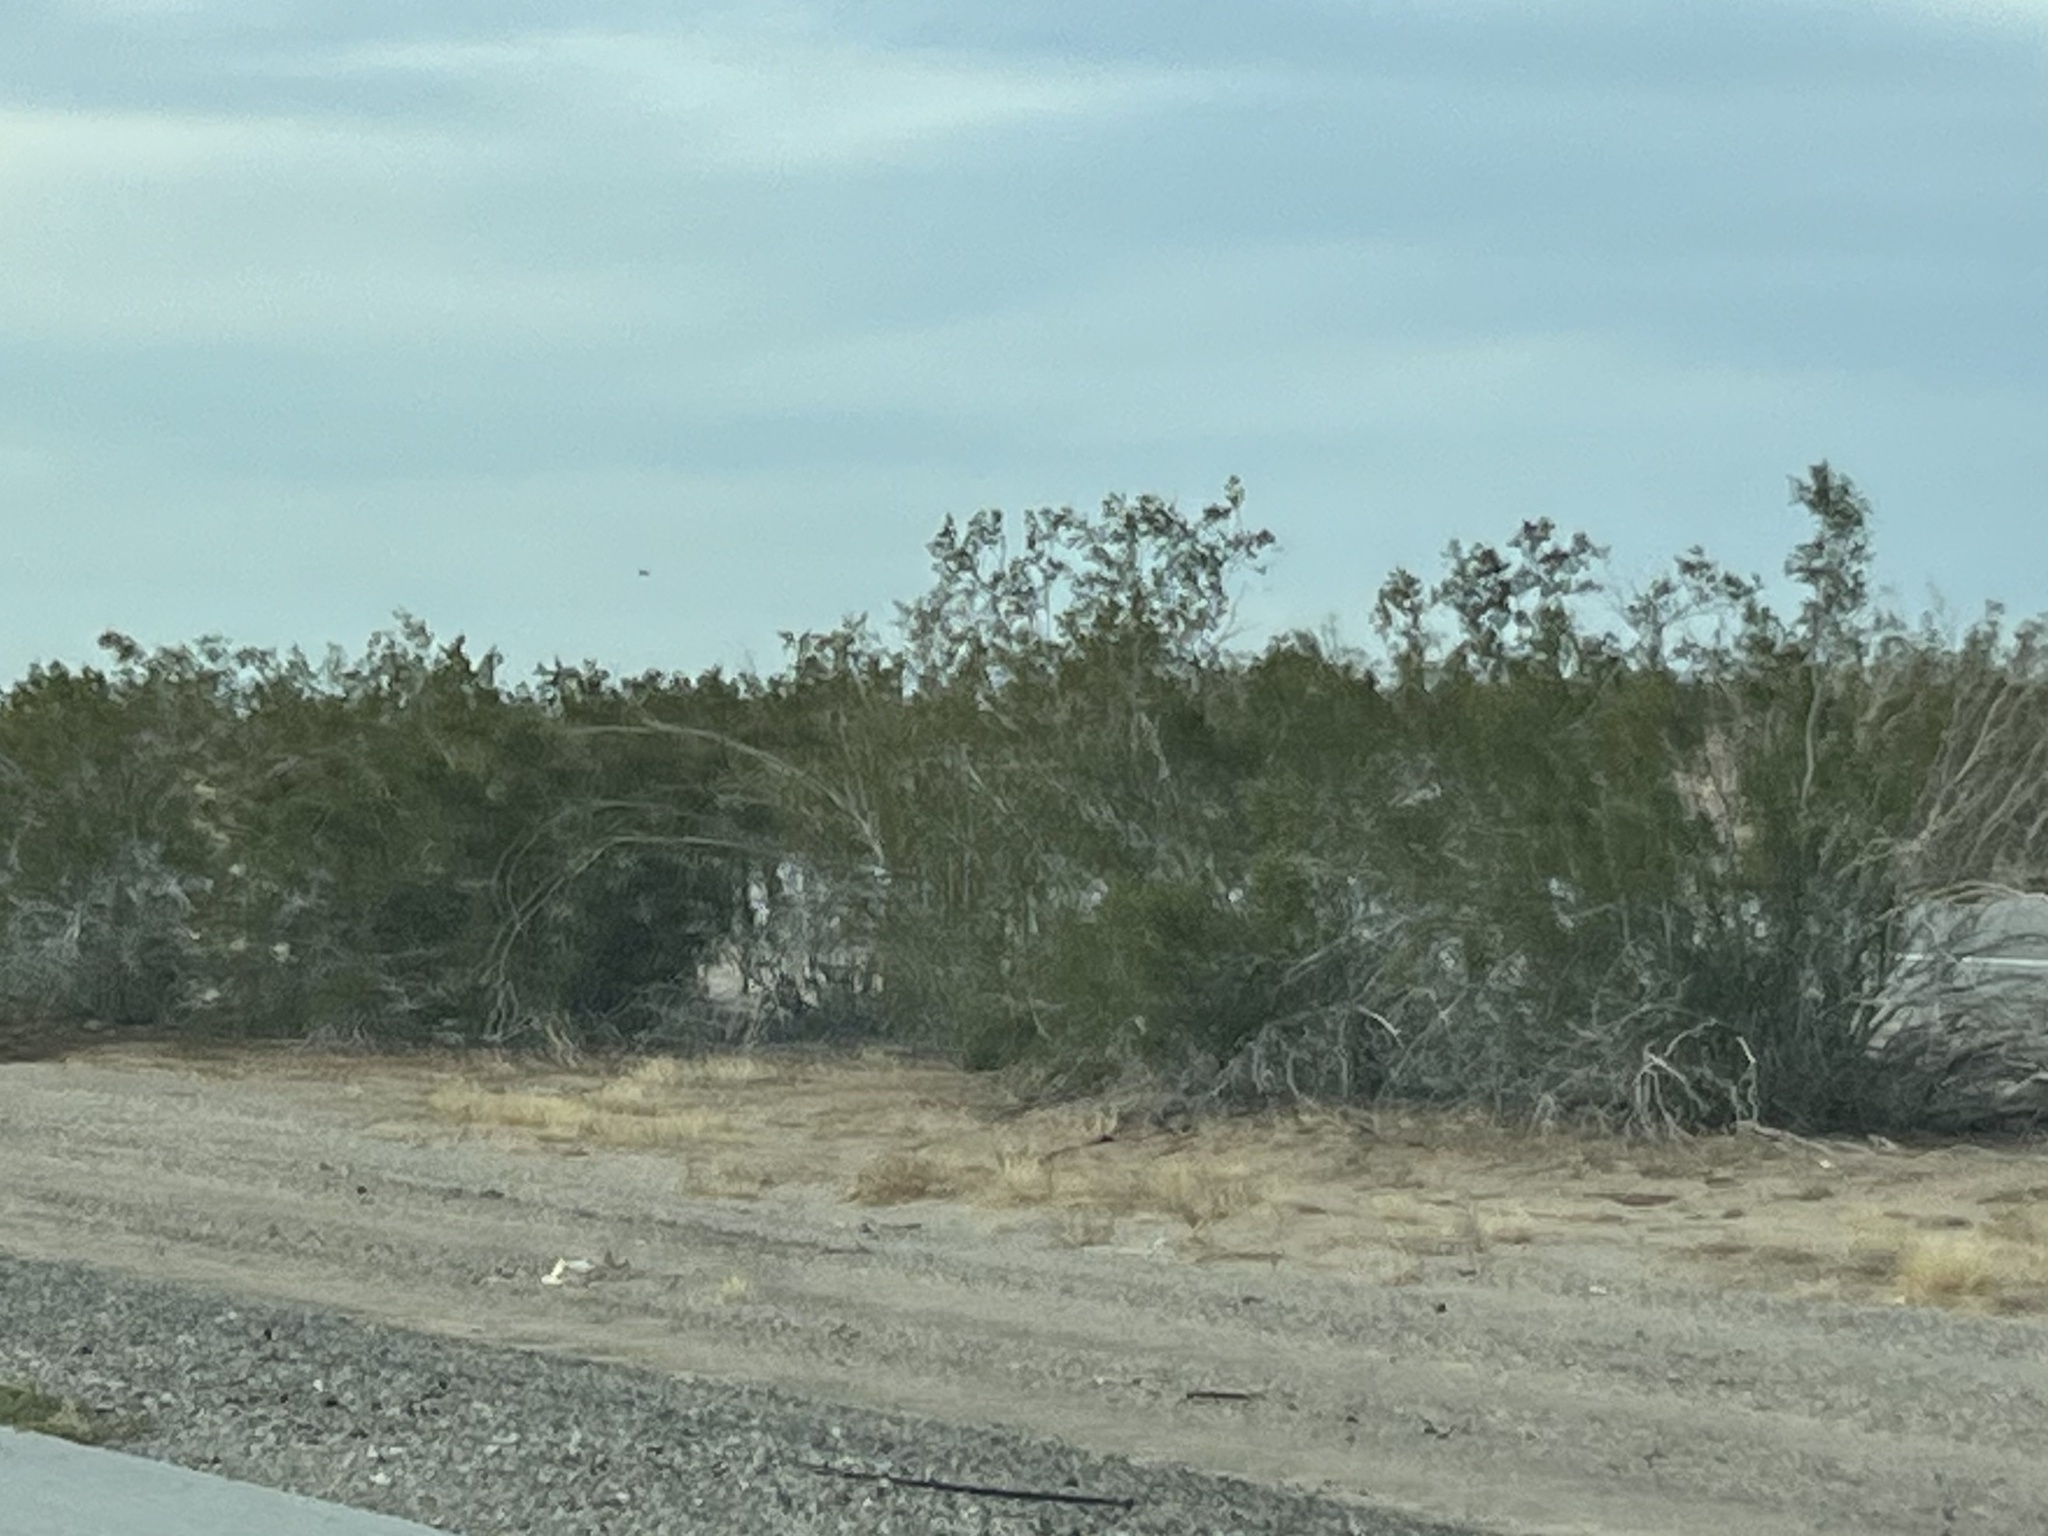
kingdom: Plantae
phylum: Tracheophyta
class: Magnoliopsida
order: Zygophyllales
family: Zygophyllaceae
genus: Larrea
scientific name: Larrea tridentata
